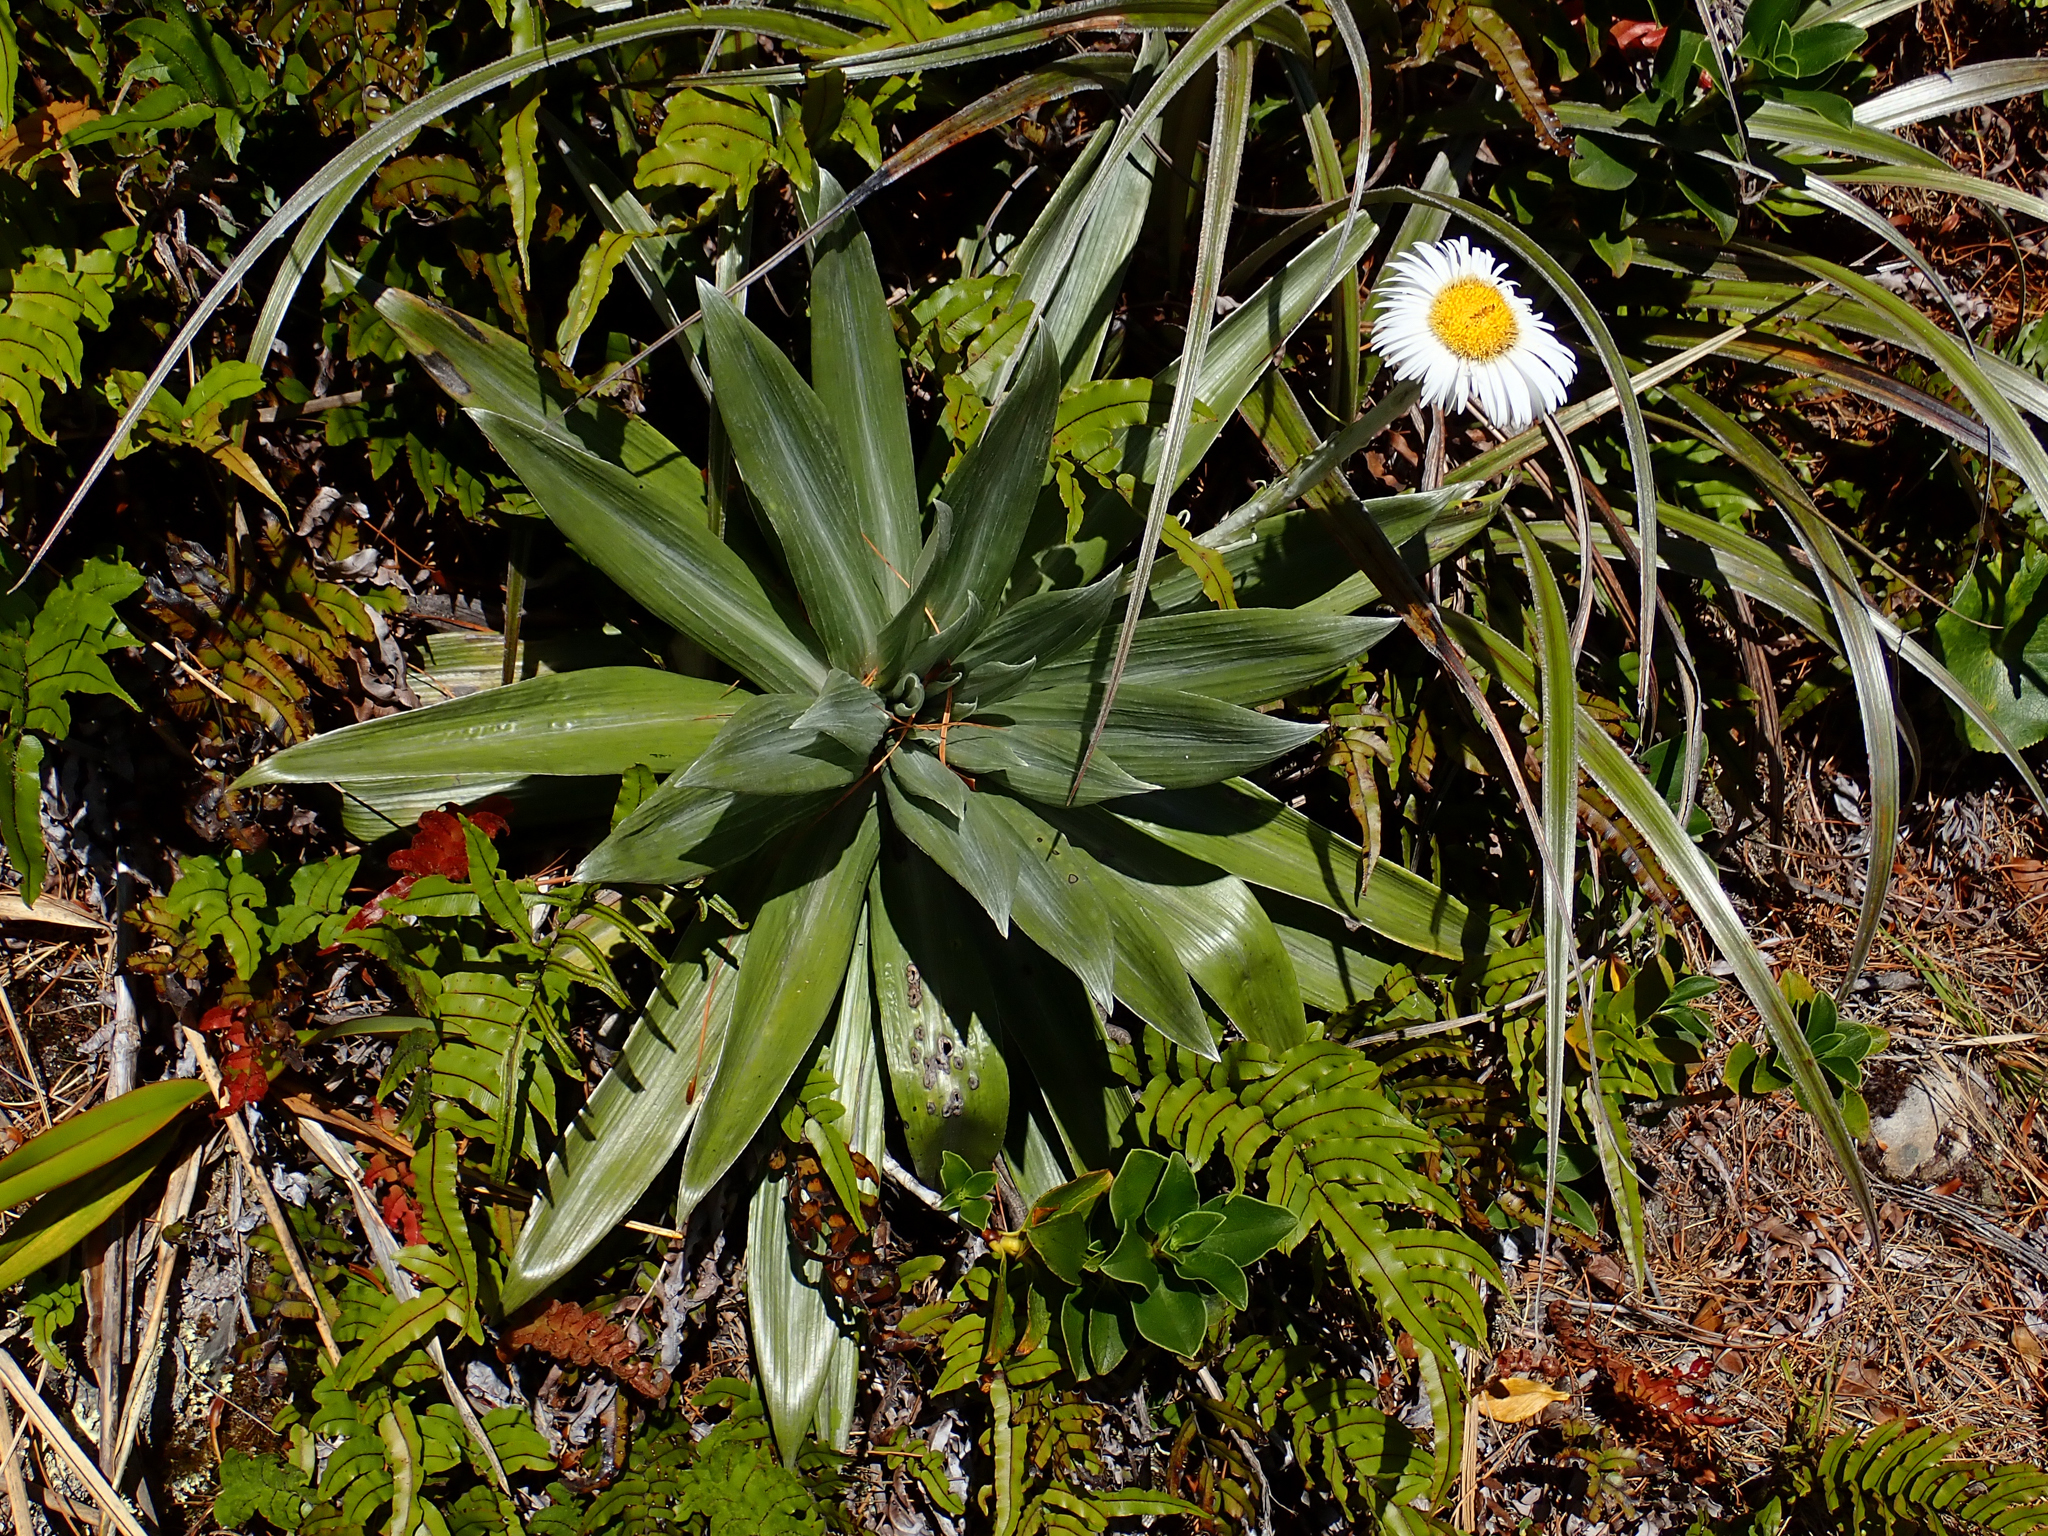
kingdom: Plantae
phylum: Tracheophyta
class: Magnoliopsida
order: Asterales
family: Asteraceae
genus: Celmisia
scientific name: Celmisia semicordata
